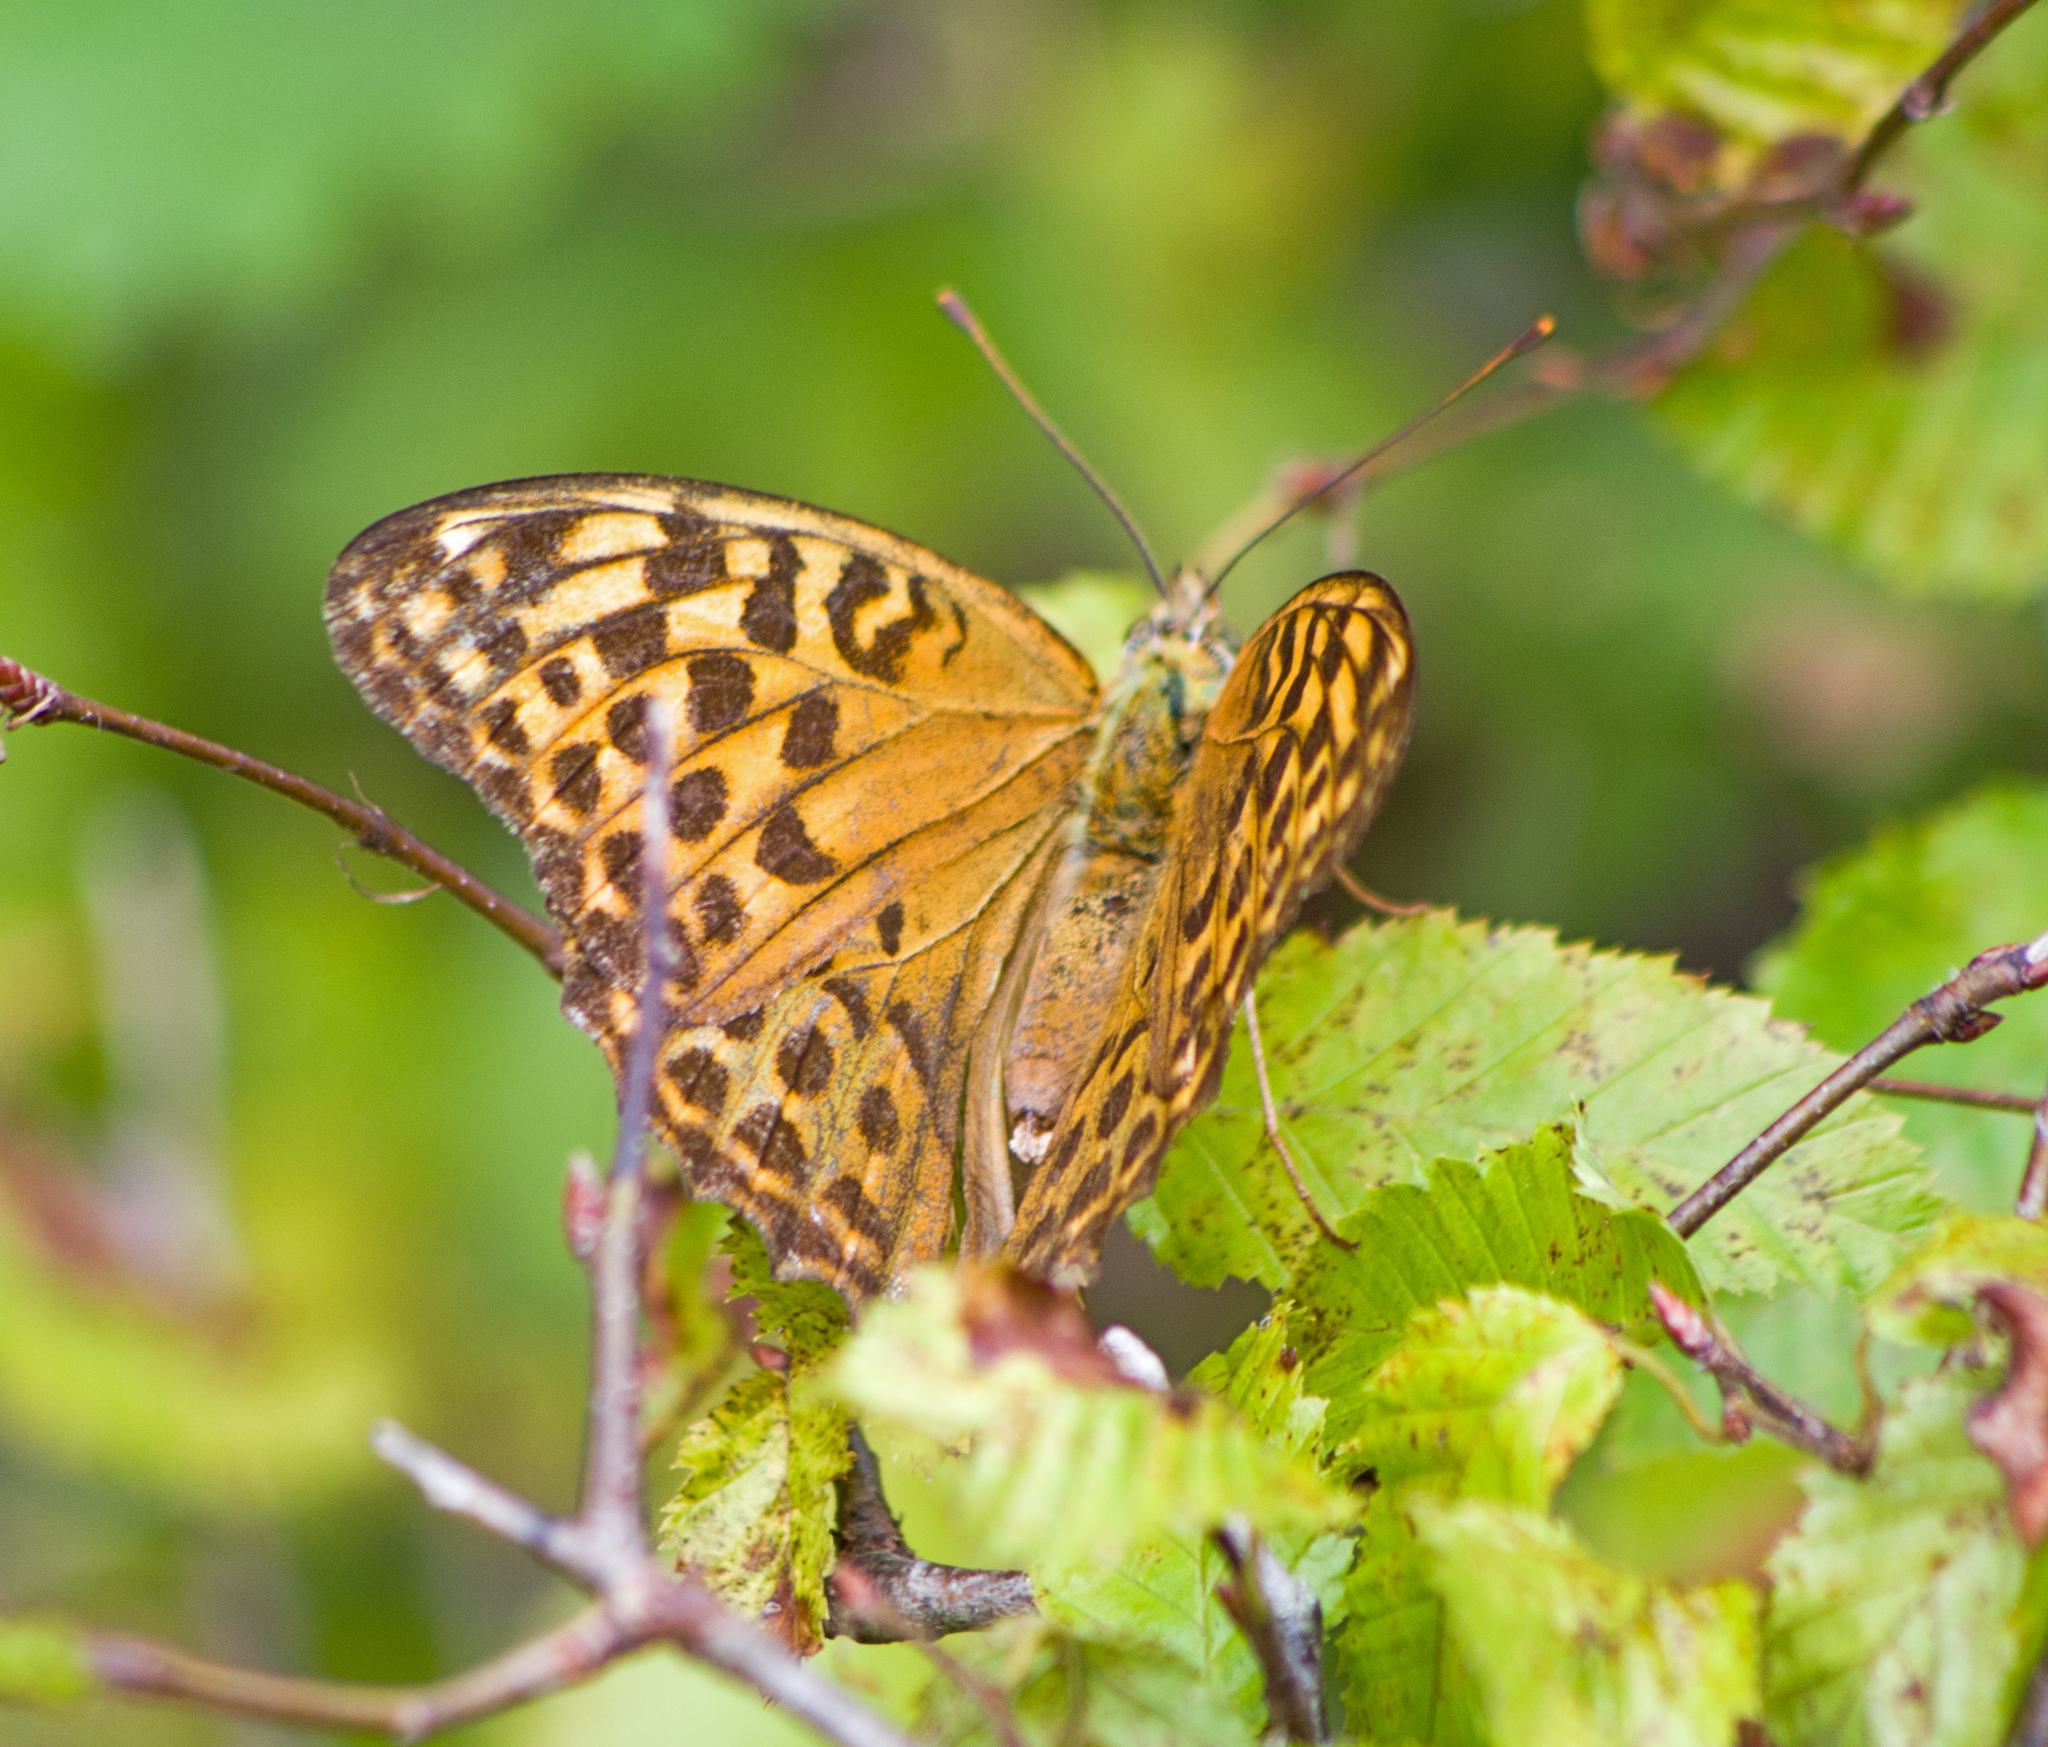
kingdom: Animalia
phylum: Arthropoda
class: Insecta
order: Lepidoptera
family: Nymphalidae
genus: Argynnis
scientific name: Argynnis paphia
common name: Silver-washed fritillary
